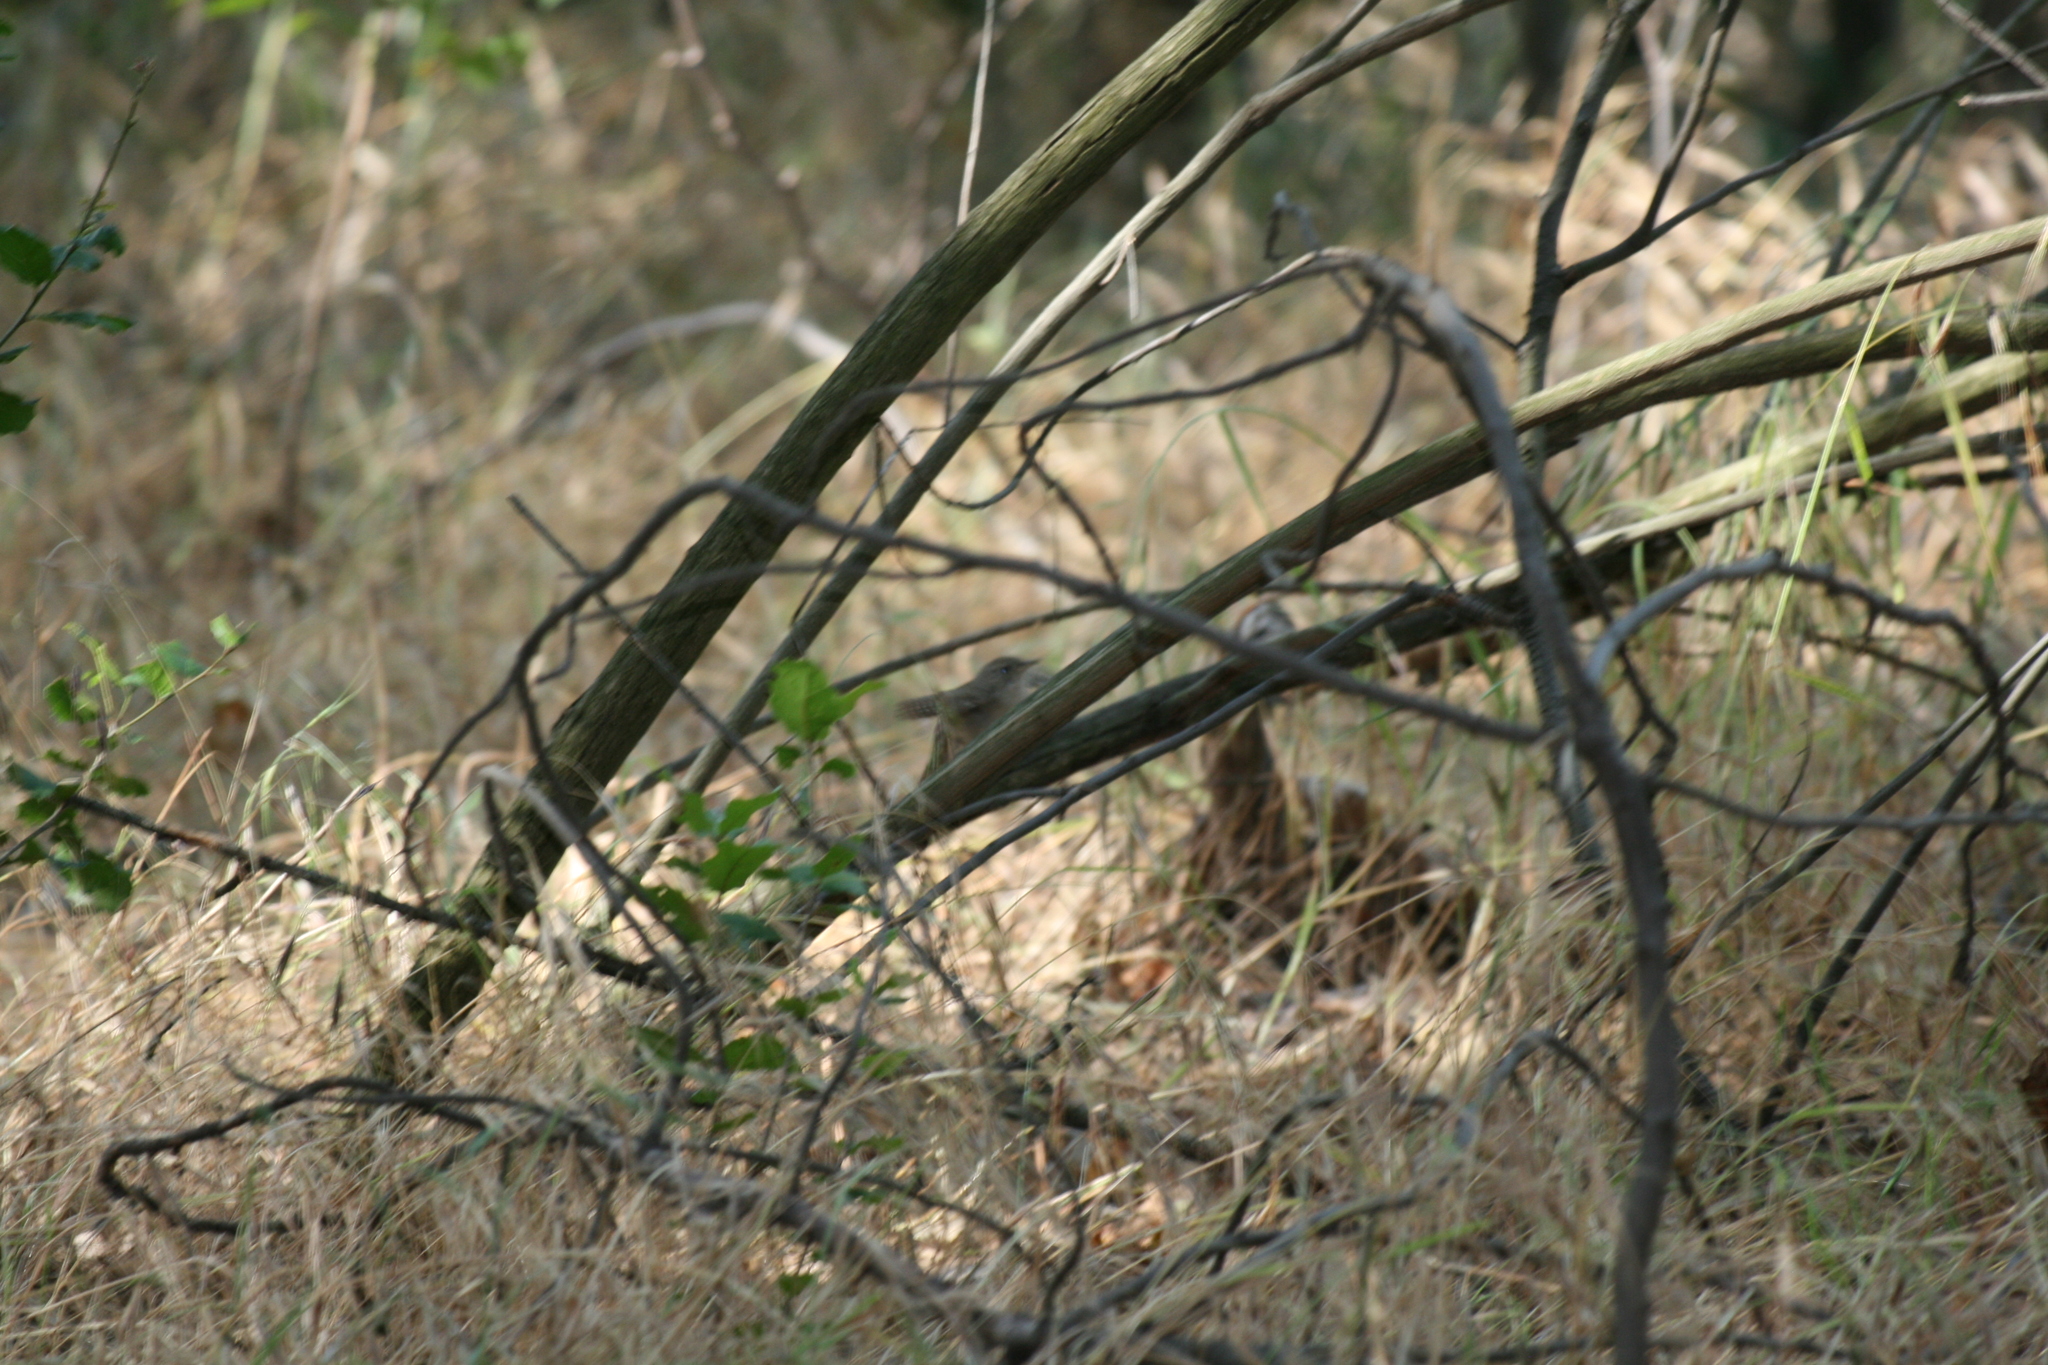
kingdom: Animalia
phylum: Chordata
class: Aves
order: Passeriformes
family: Troglodytidae
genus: Troglodytes
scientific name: Troglodytes aedon
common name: House wren
